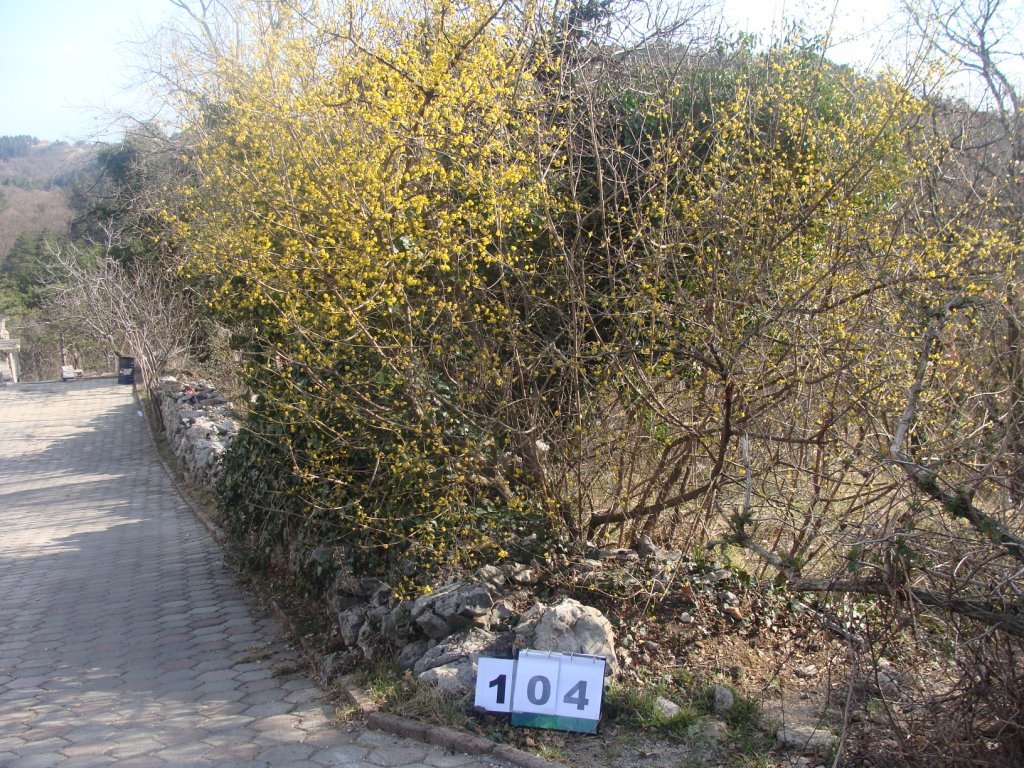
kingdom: Plantae
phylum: Tracheophyta
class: Magnoliopsida
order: Cornales
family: Cornaceae
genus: Cornus
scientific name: Cornus mas
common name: Cornelian-cherry
